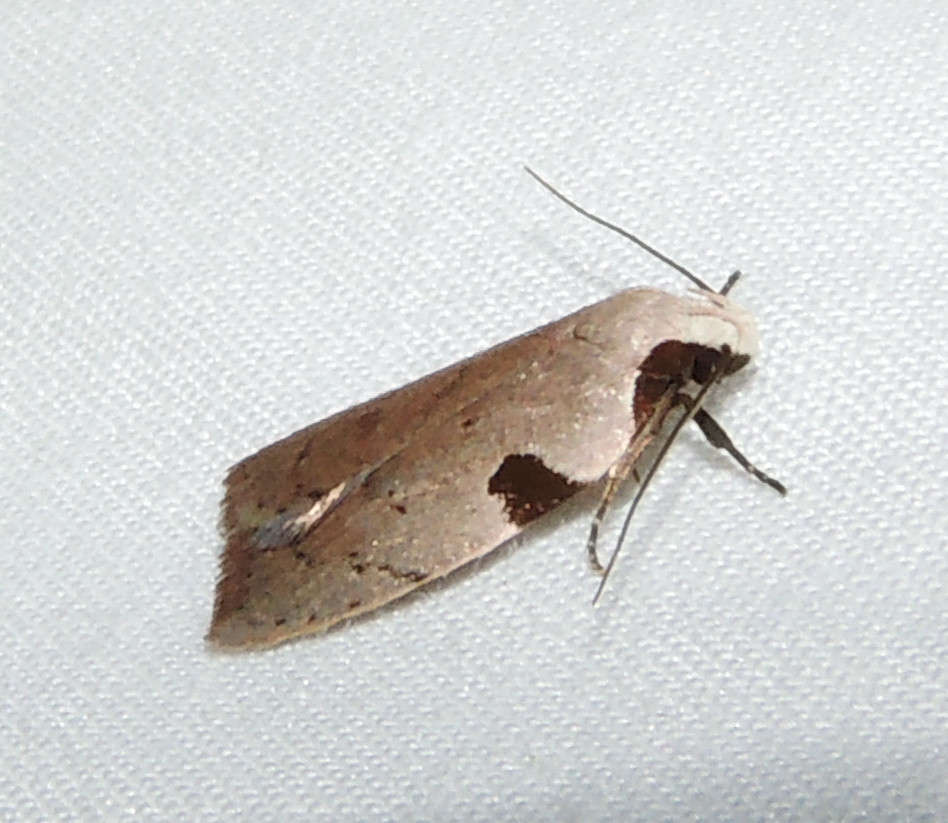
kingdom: Animalia
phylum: Arthropoda
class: Insecta
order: Lepidoptera
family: Oecophoridae
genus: Zonopetala
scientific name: Zonopetala quadripustulella
